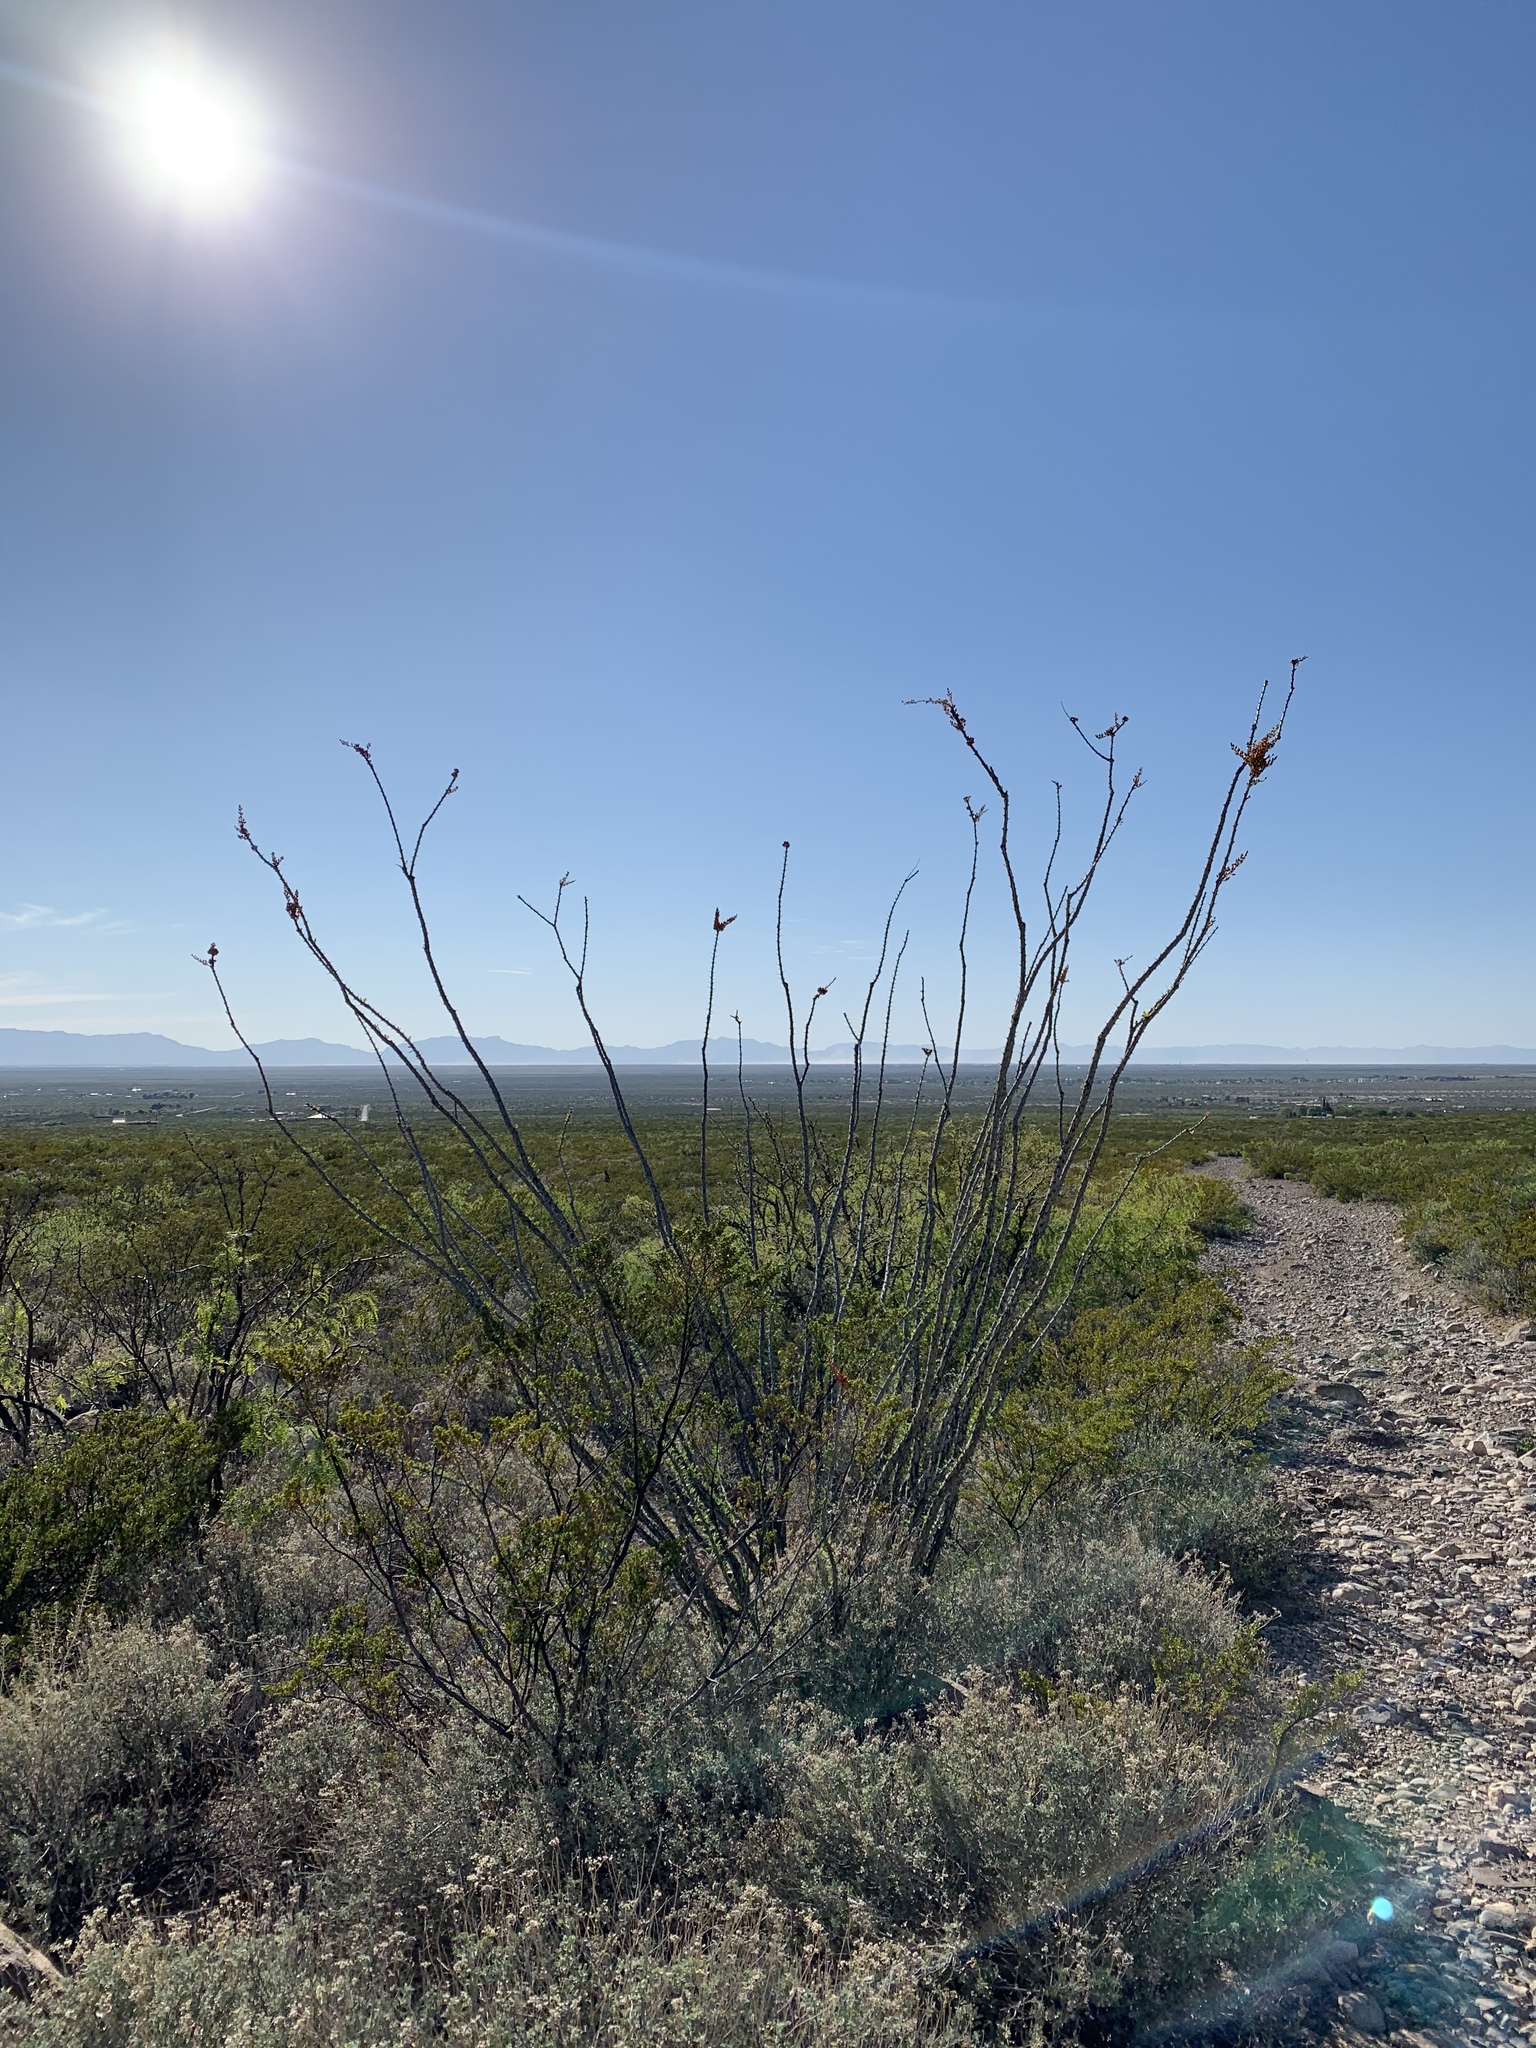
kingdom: Plantae
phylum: Tracheophyta
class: Magnoliopsida
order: Ericales
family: Fouquieriaceae
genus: Fouquieria
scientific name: Fouquieria splendens
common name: Vine-cactus
